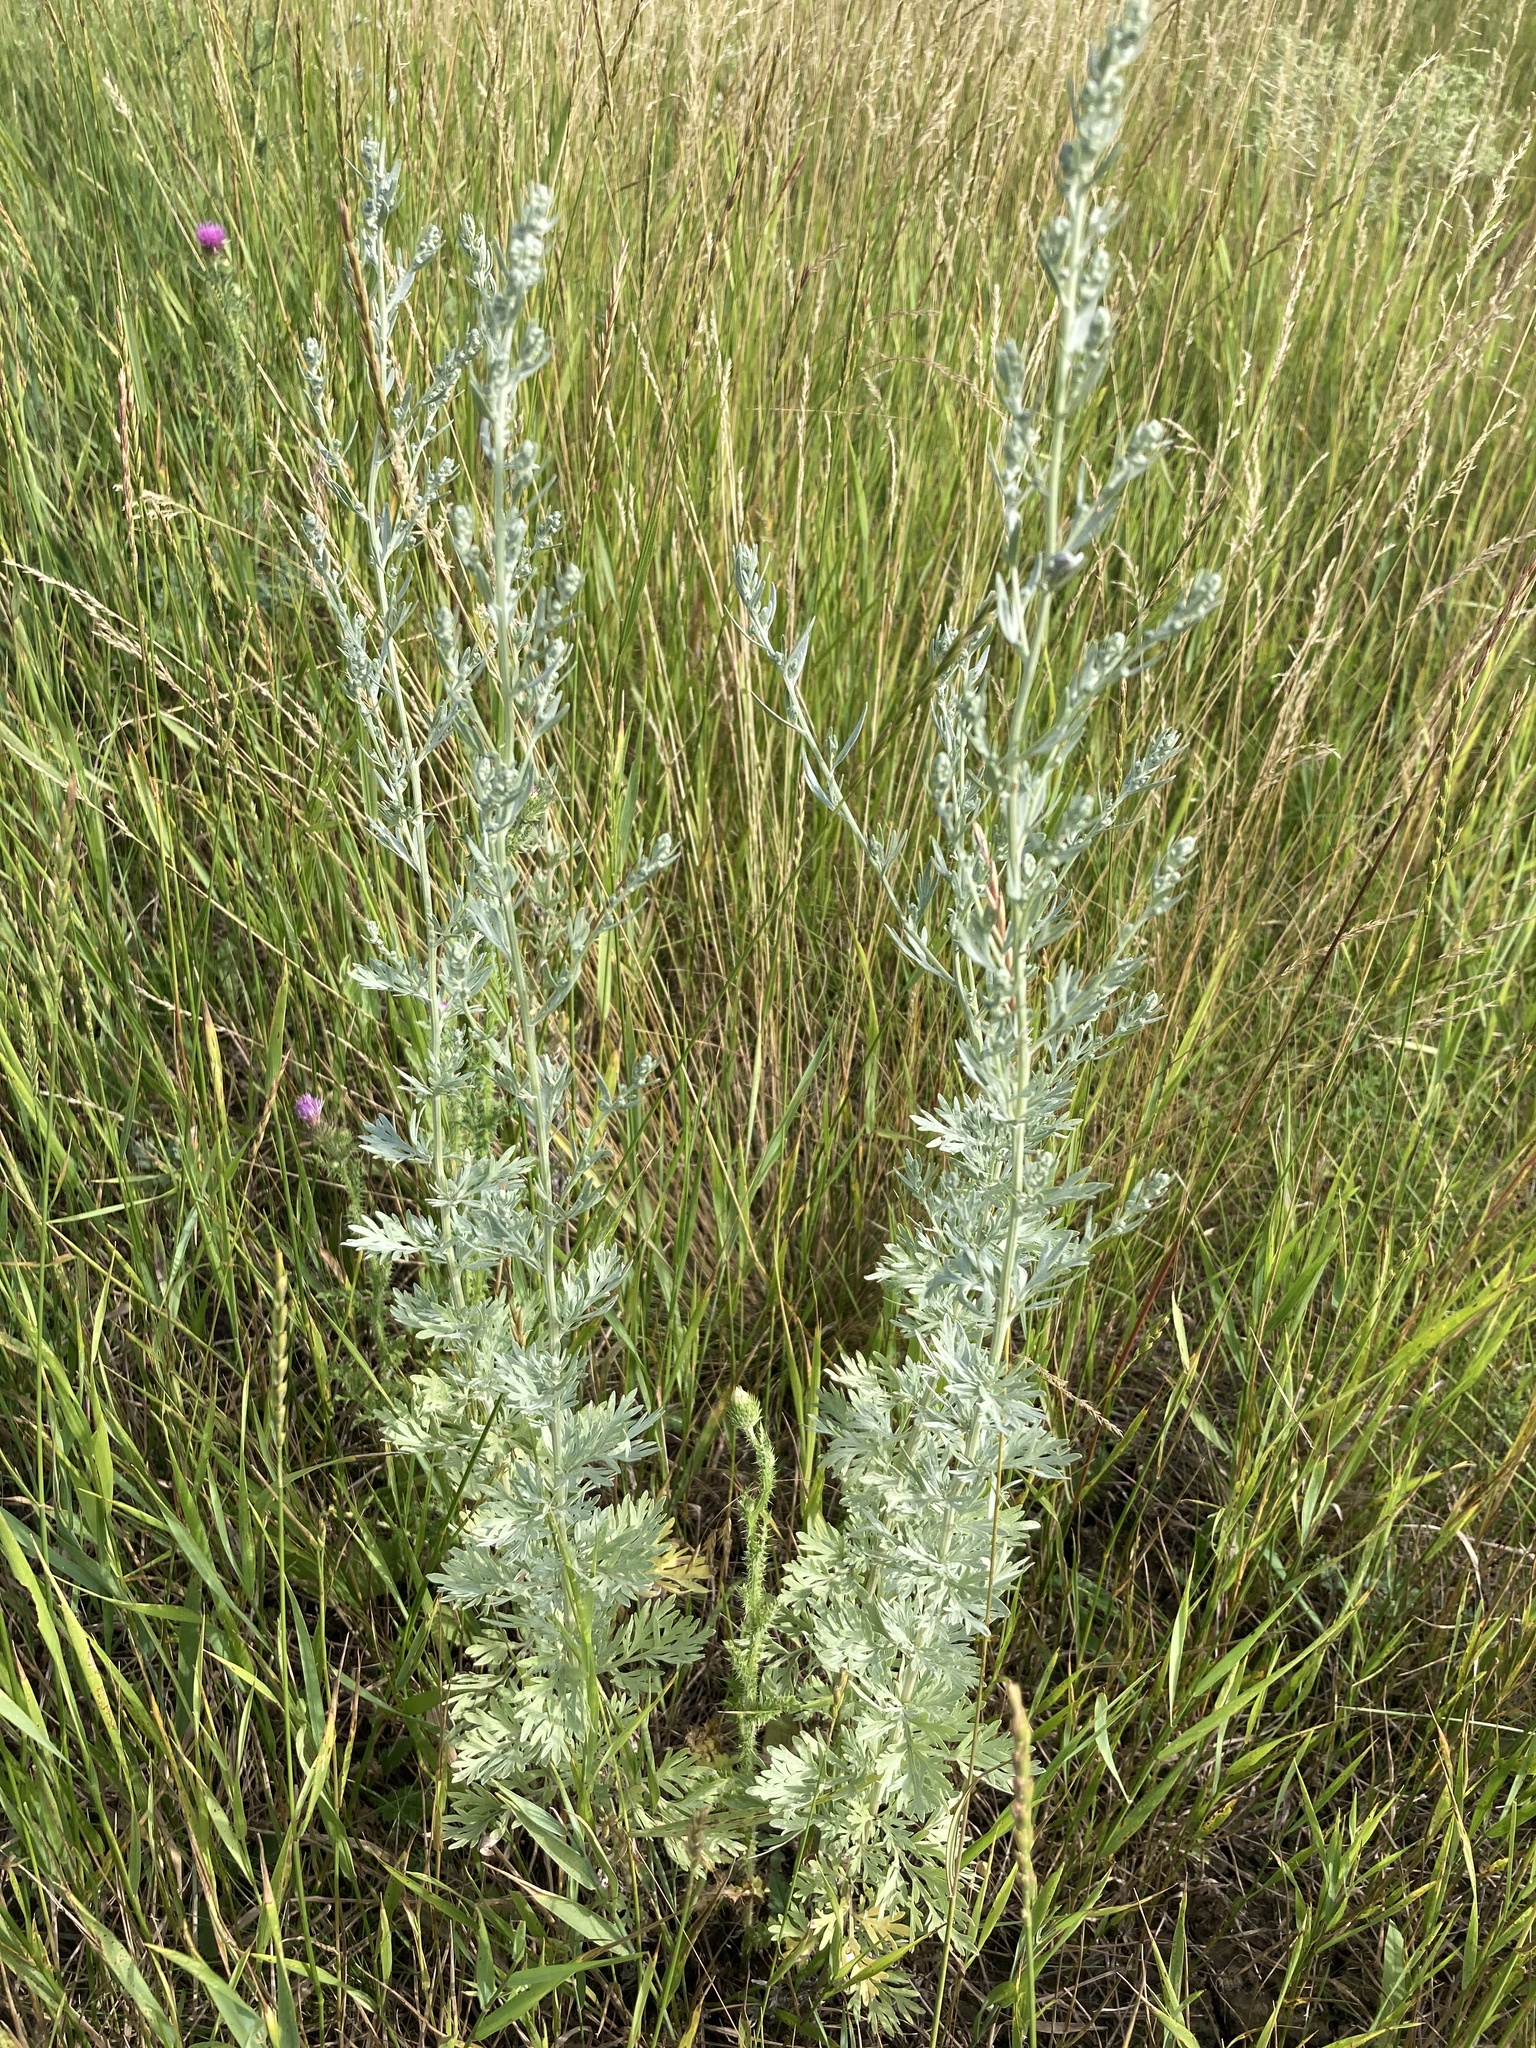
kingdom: Plantae
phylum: Tracheophyta
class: Magnoliopsida
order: Asterales
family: Asteraceae
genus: Artemisia
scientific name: Artemisia absinthium
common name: Wormwood
